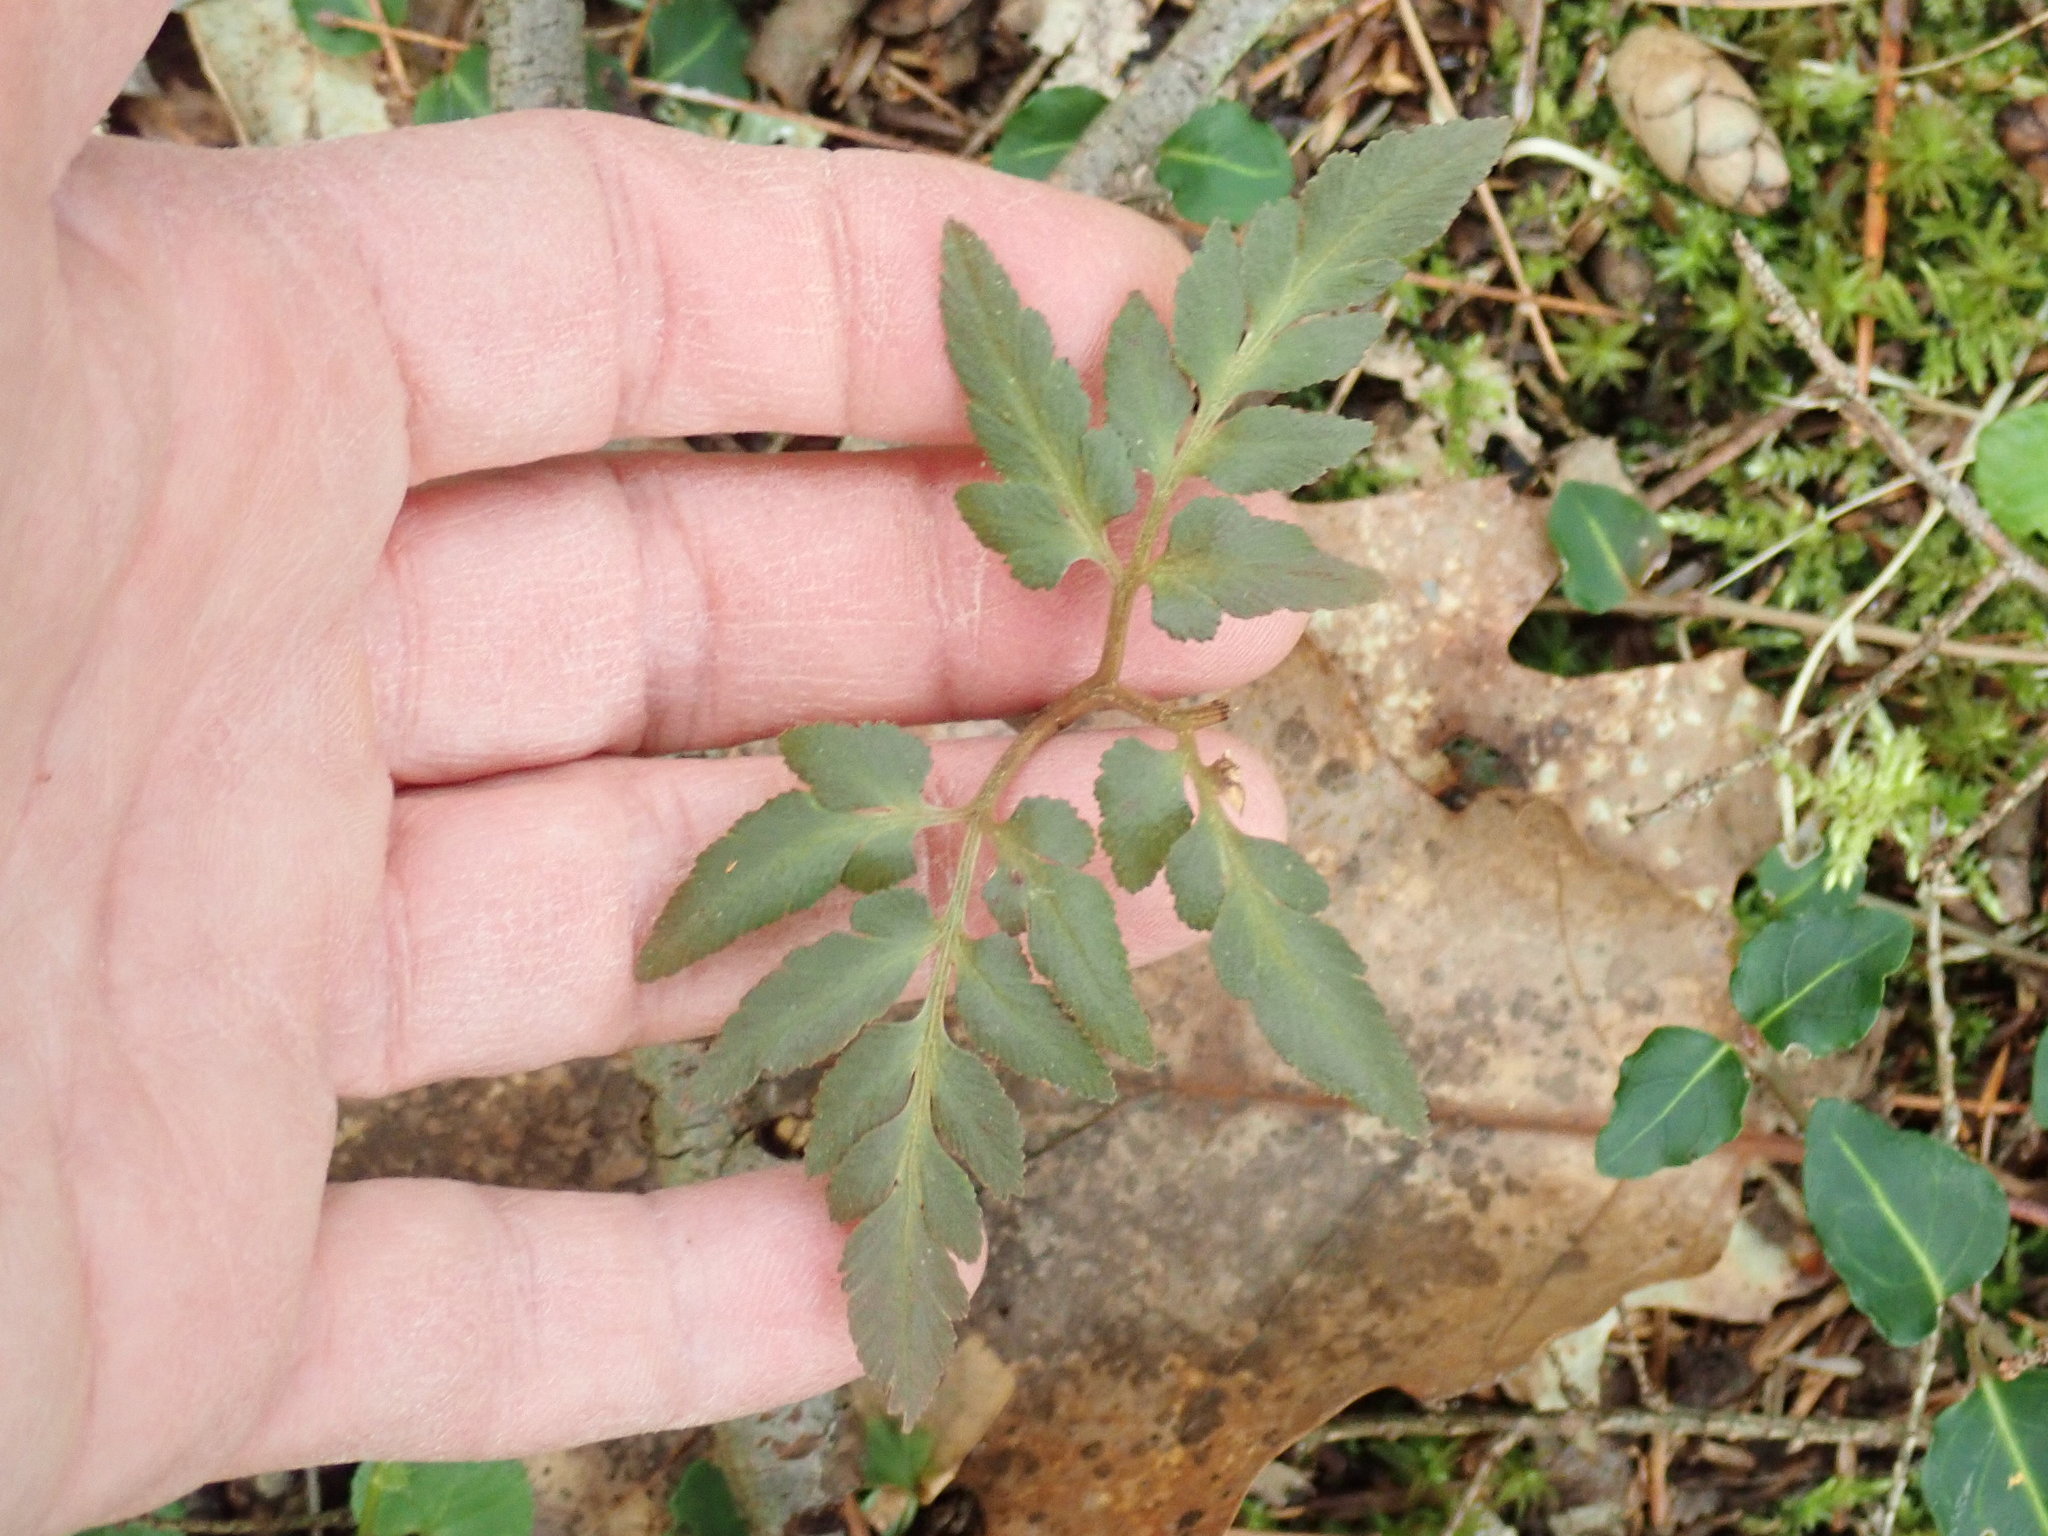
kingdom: Plantae
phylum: Tracheophyta
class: Polypodiopsida
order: Ophioglossales
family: Ophioglossaceae
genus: Sceptridium
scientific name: Sceptridium dissectum
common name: Cut-leaved grapefern
